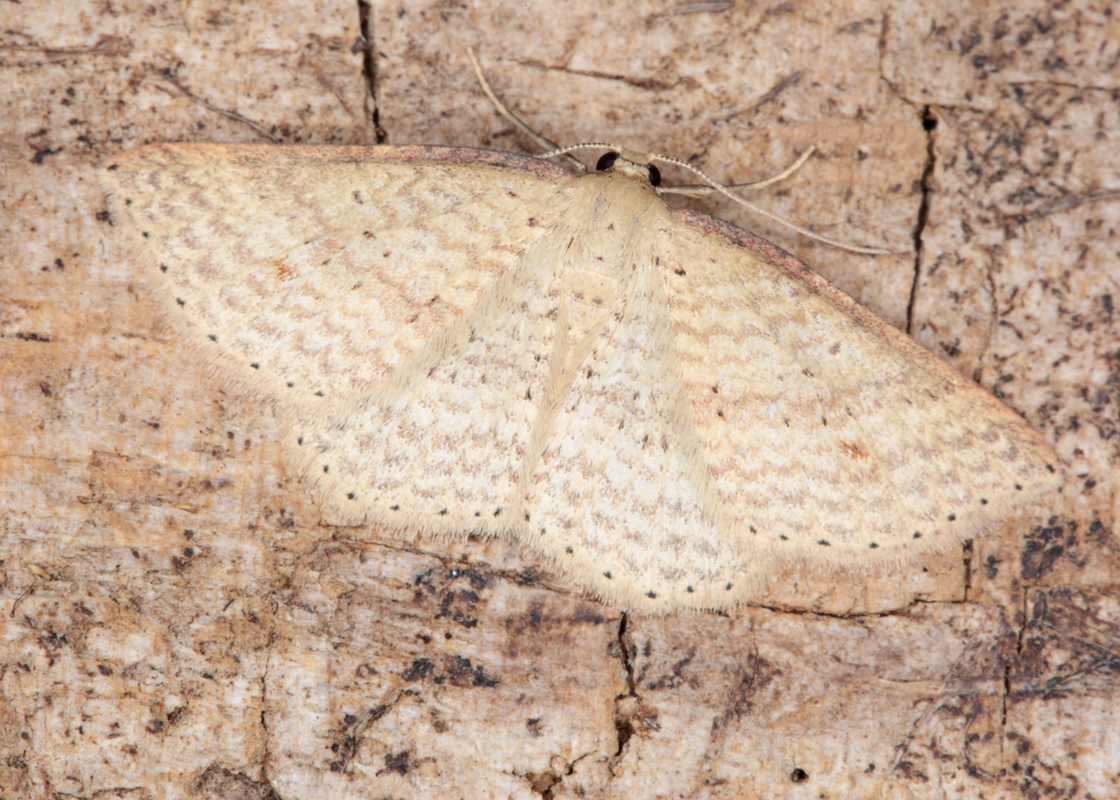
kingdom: Animalia
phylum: Arthropoda
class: Insecta
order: Lepidoptera
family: Geometridae
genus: Epicyme
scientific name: Epicyme rubropunctaria
